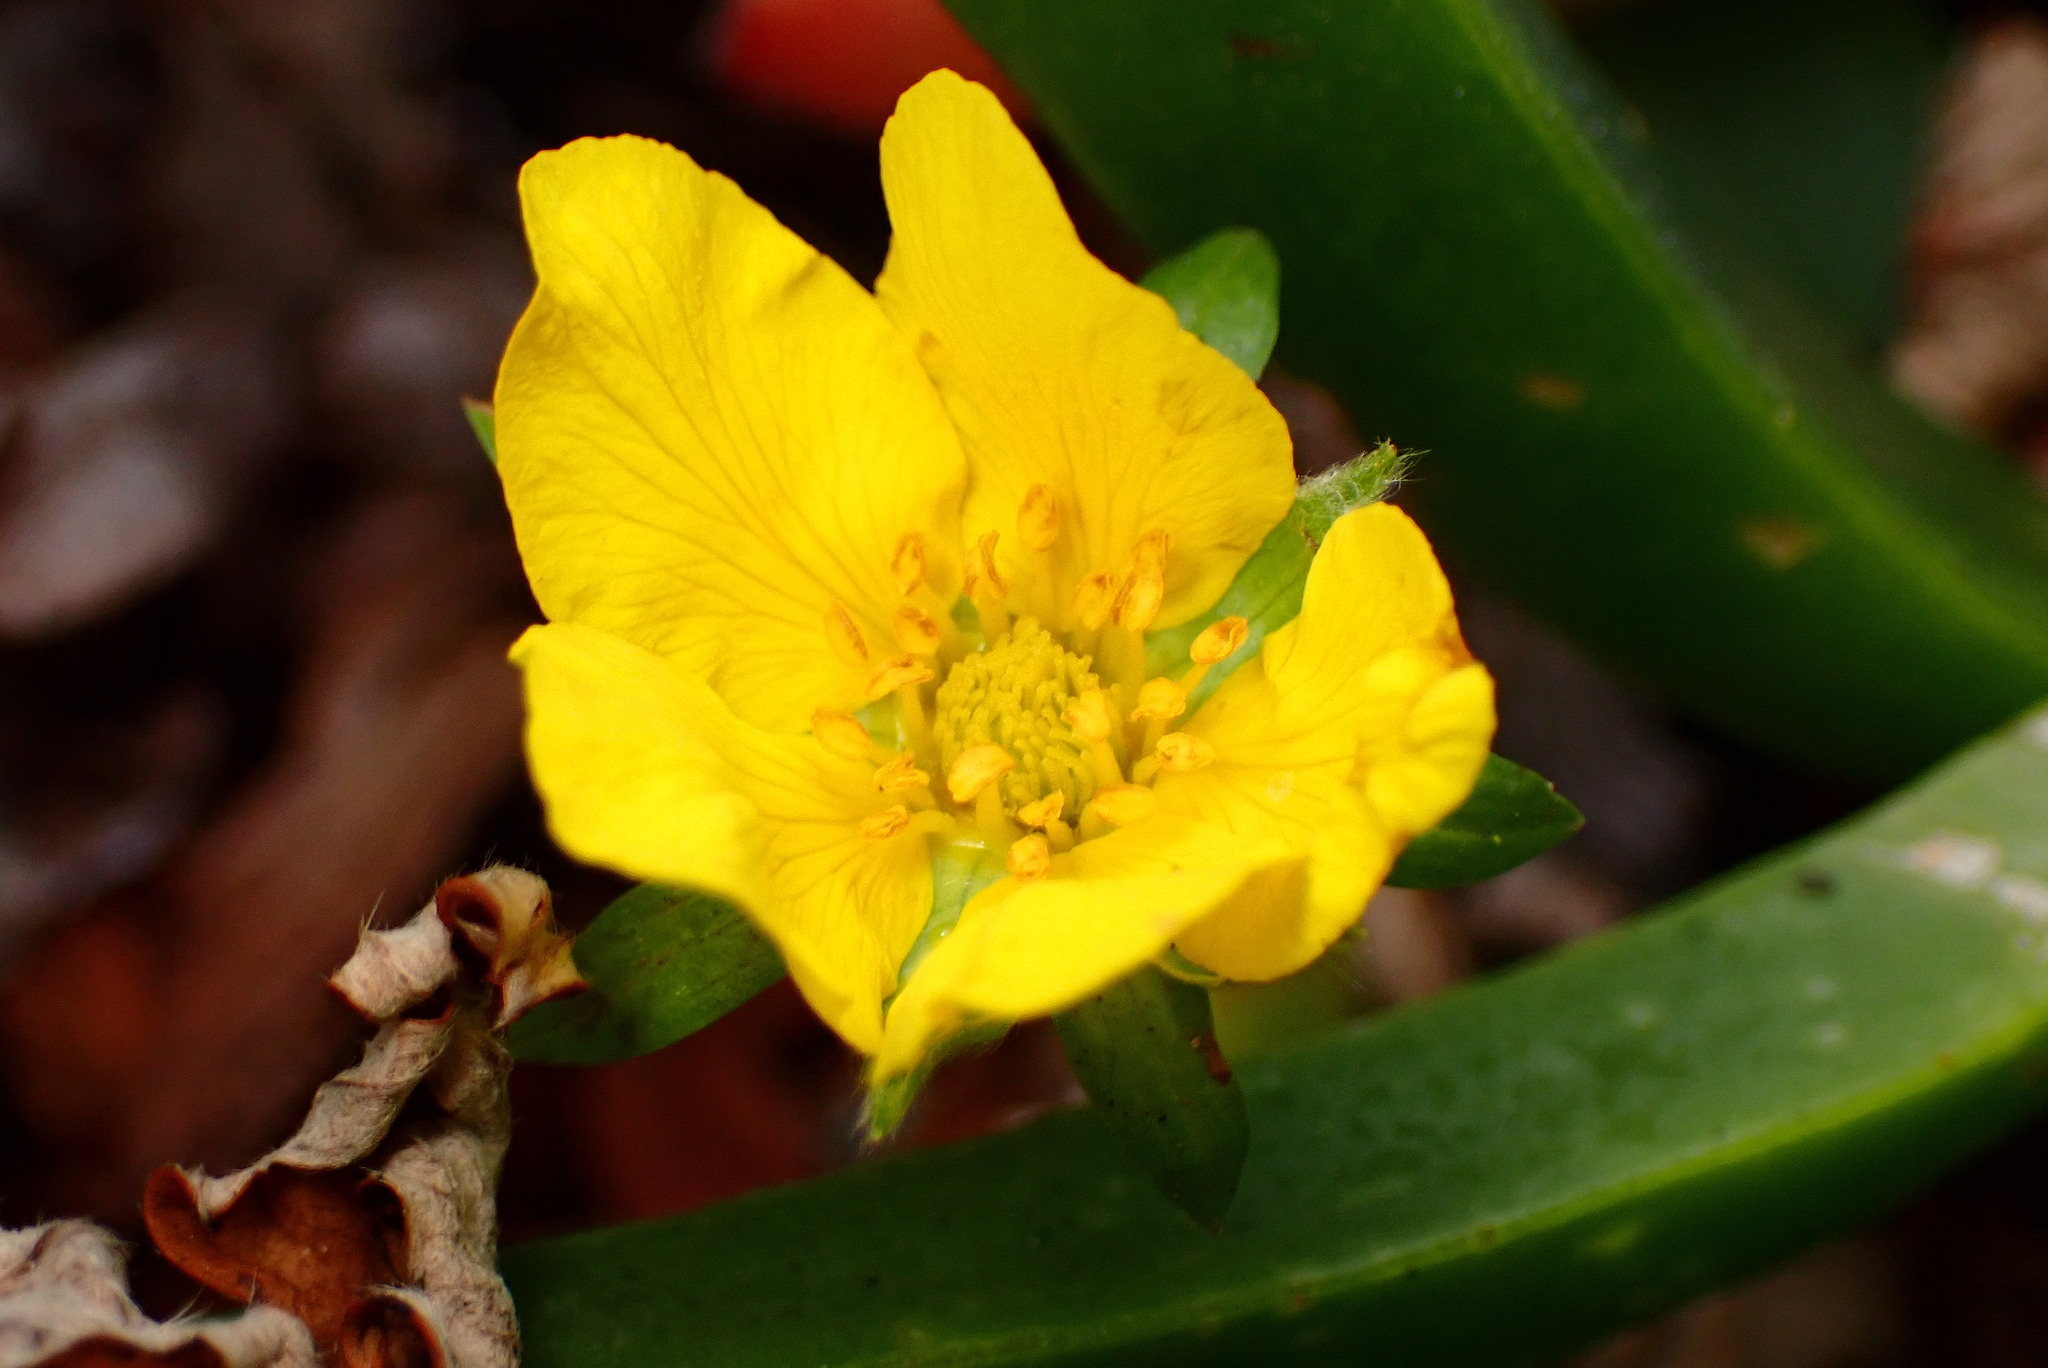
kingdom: Plantae
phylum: Tracheophyta
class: Magnoliopsida
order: Rosales
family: Rosaceae
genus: Argentina
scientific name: Argentina anserina
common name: Common silverweed
